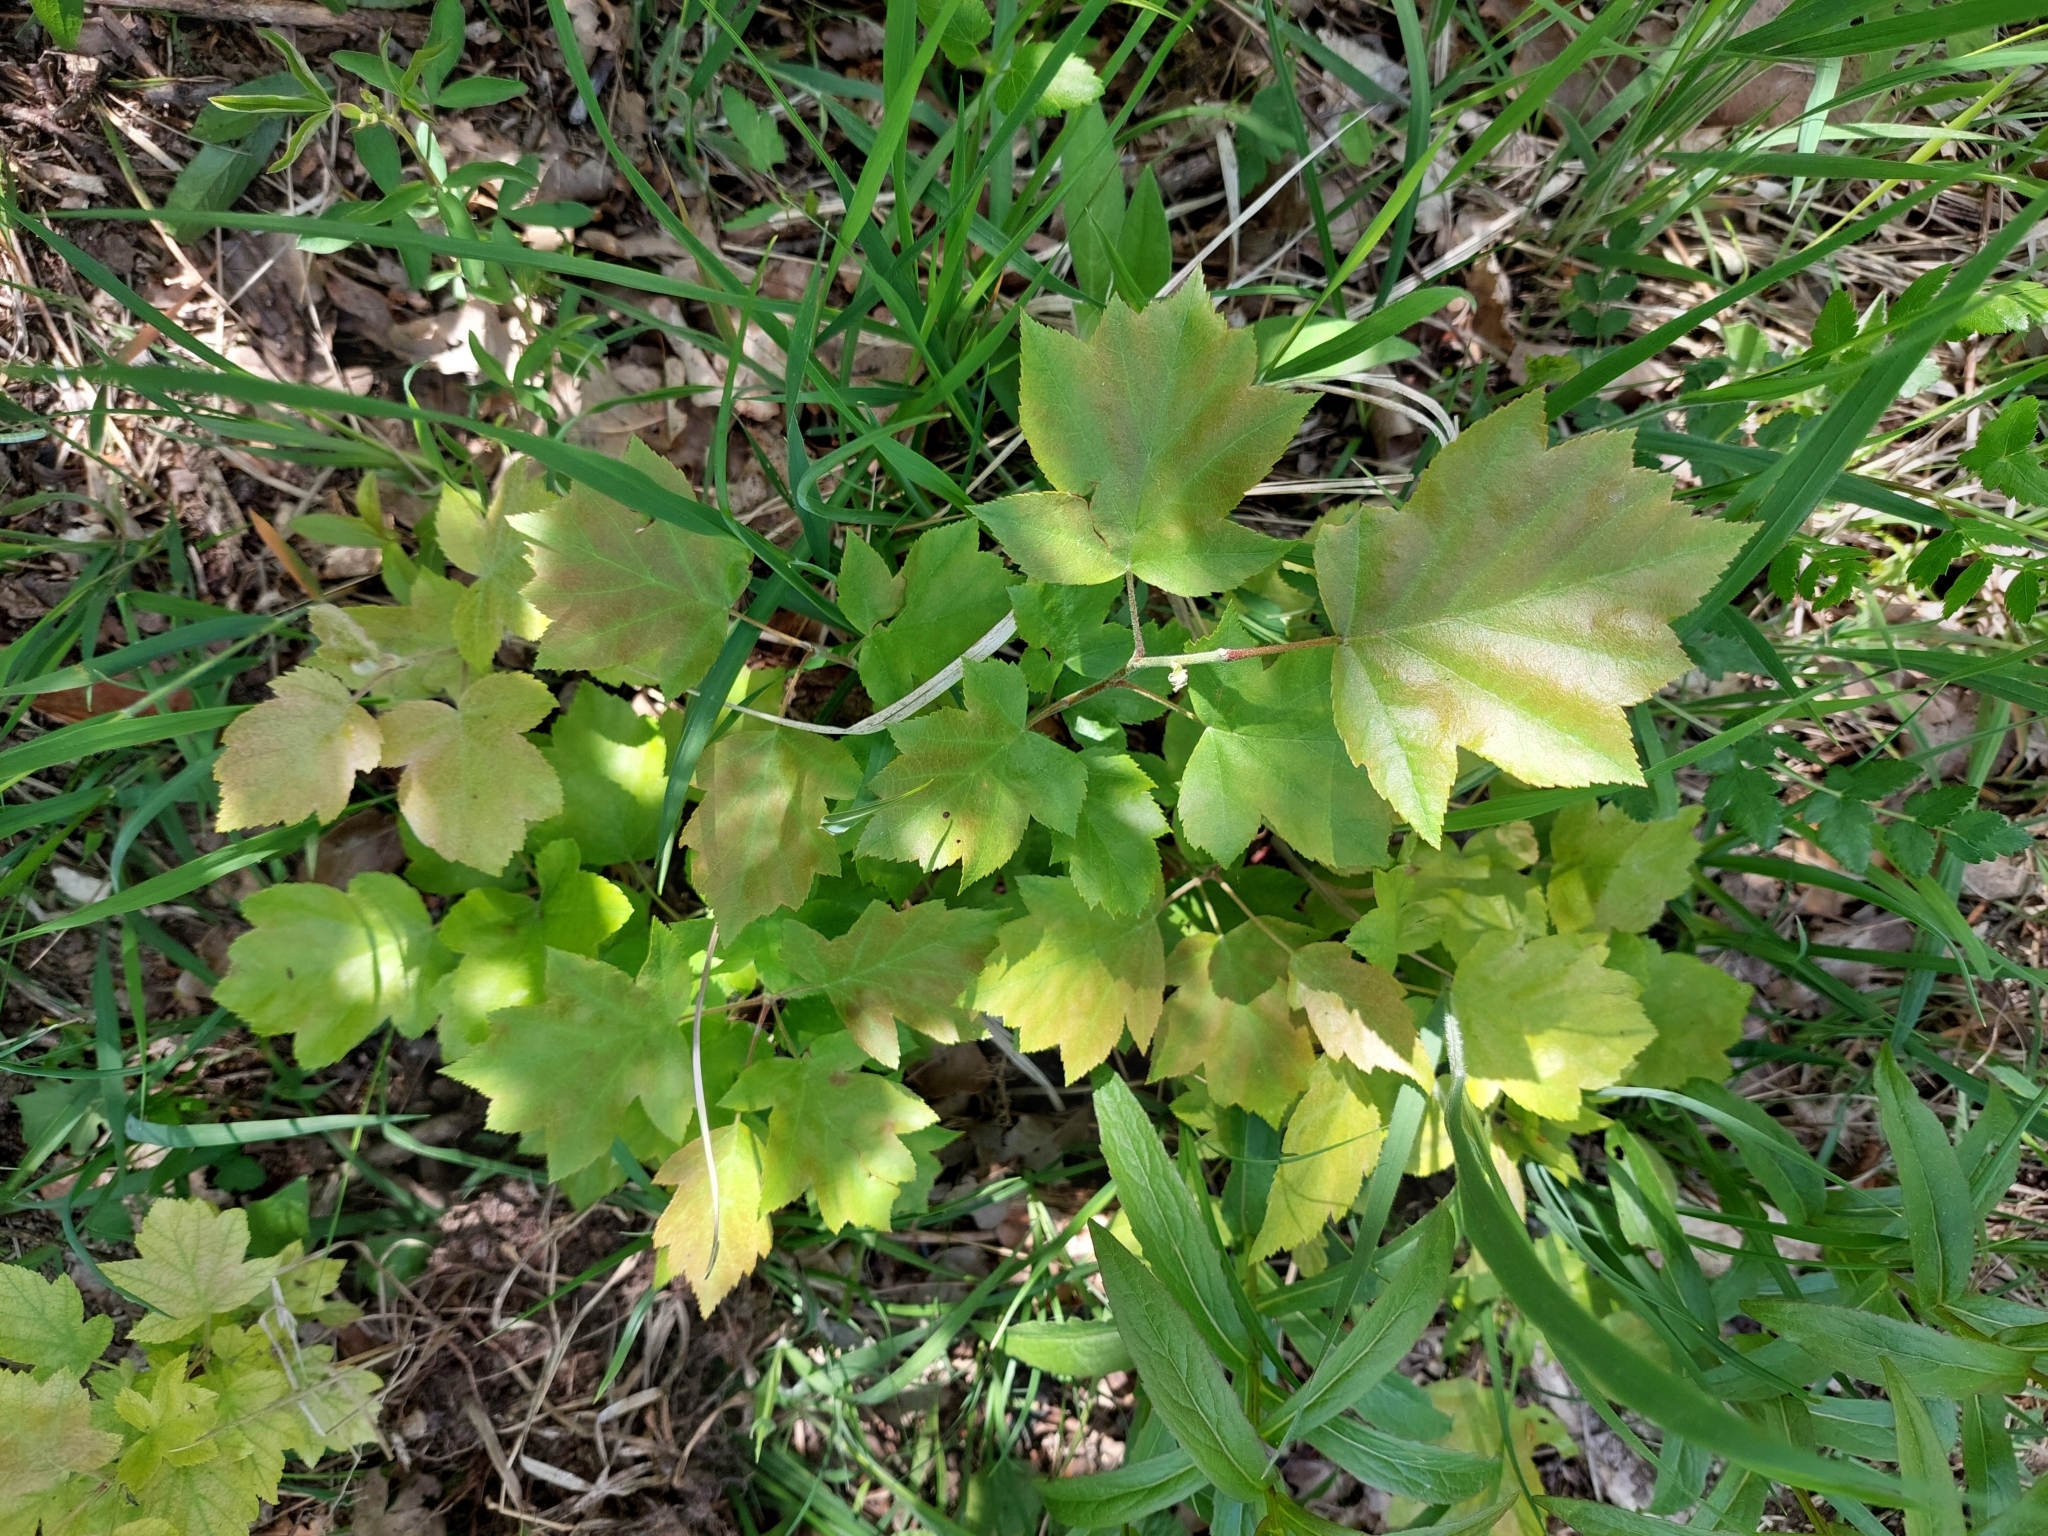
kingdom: Plantae
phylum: Tracheophyta
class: Magnoliopsida
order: Rosales
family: Rosaceae
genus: Torminalis
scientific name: Torminalis glaberrima
